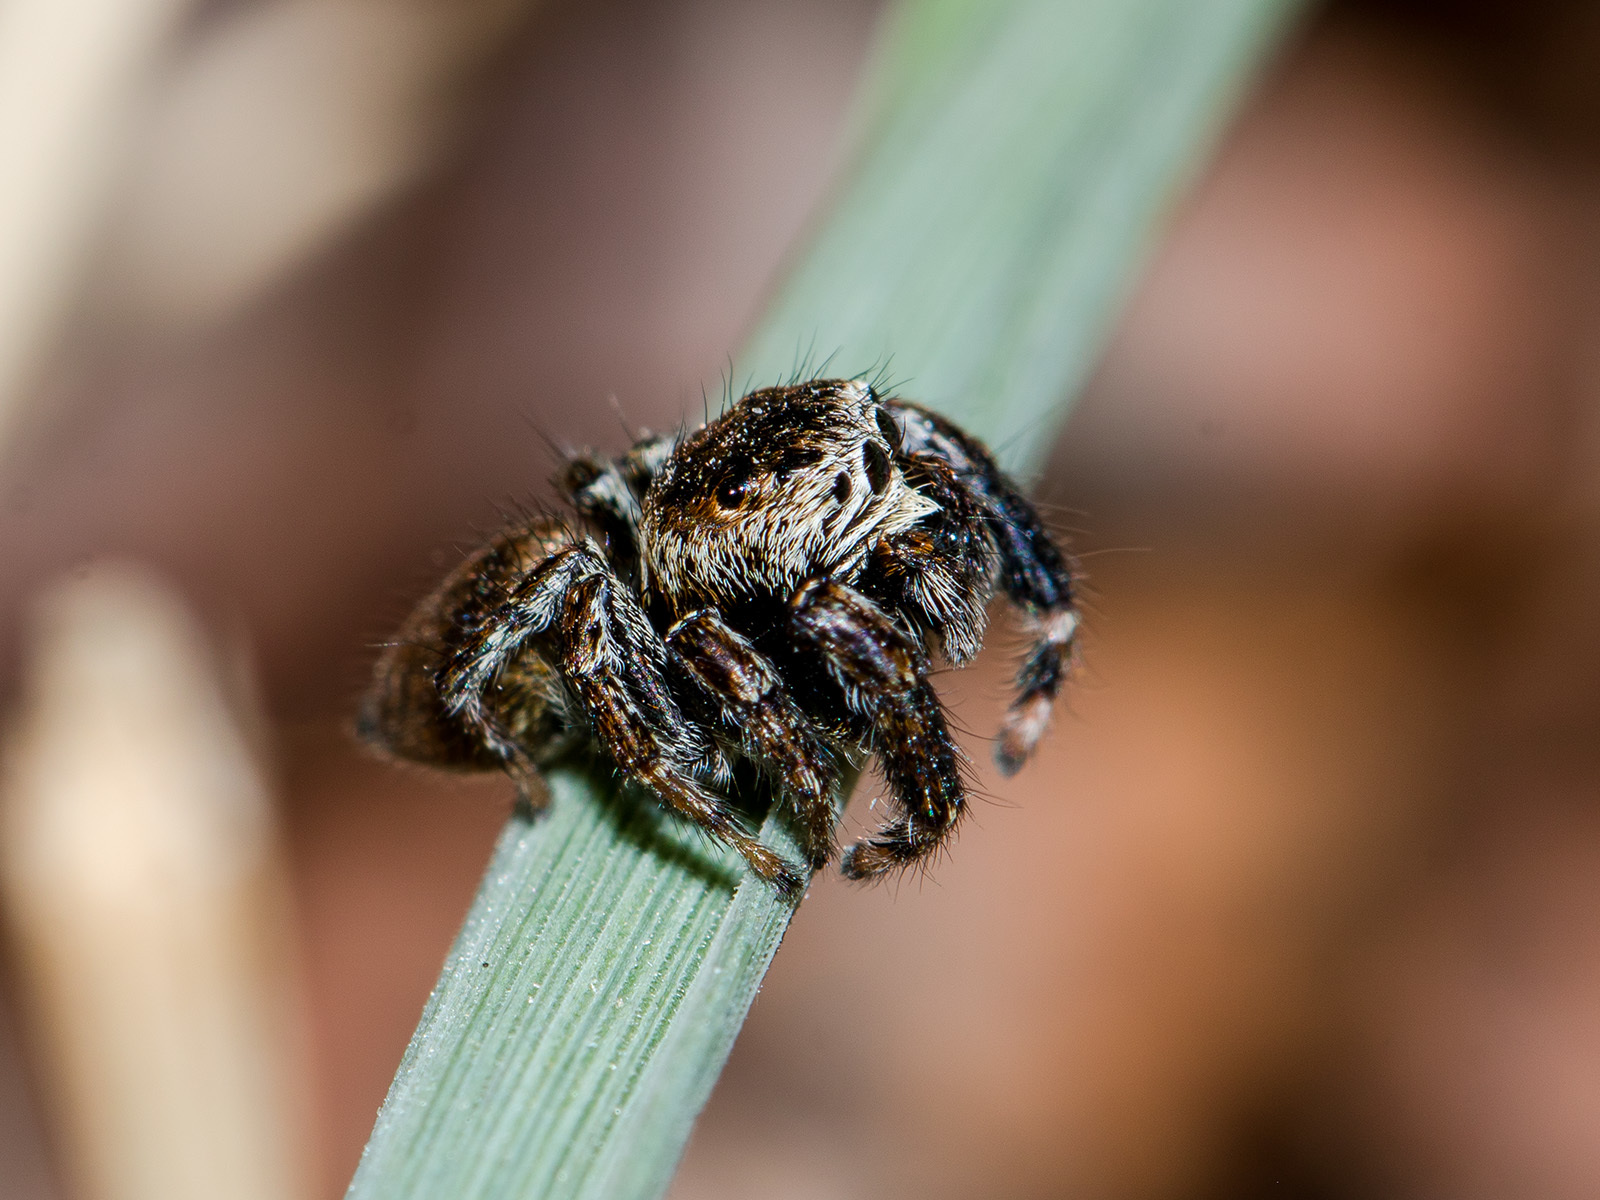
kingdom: Animalia
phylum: Arthropoda
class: Arachnida
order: Araneae
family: Salticidae
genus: Evarcha
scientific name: Evarcha arcuata
